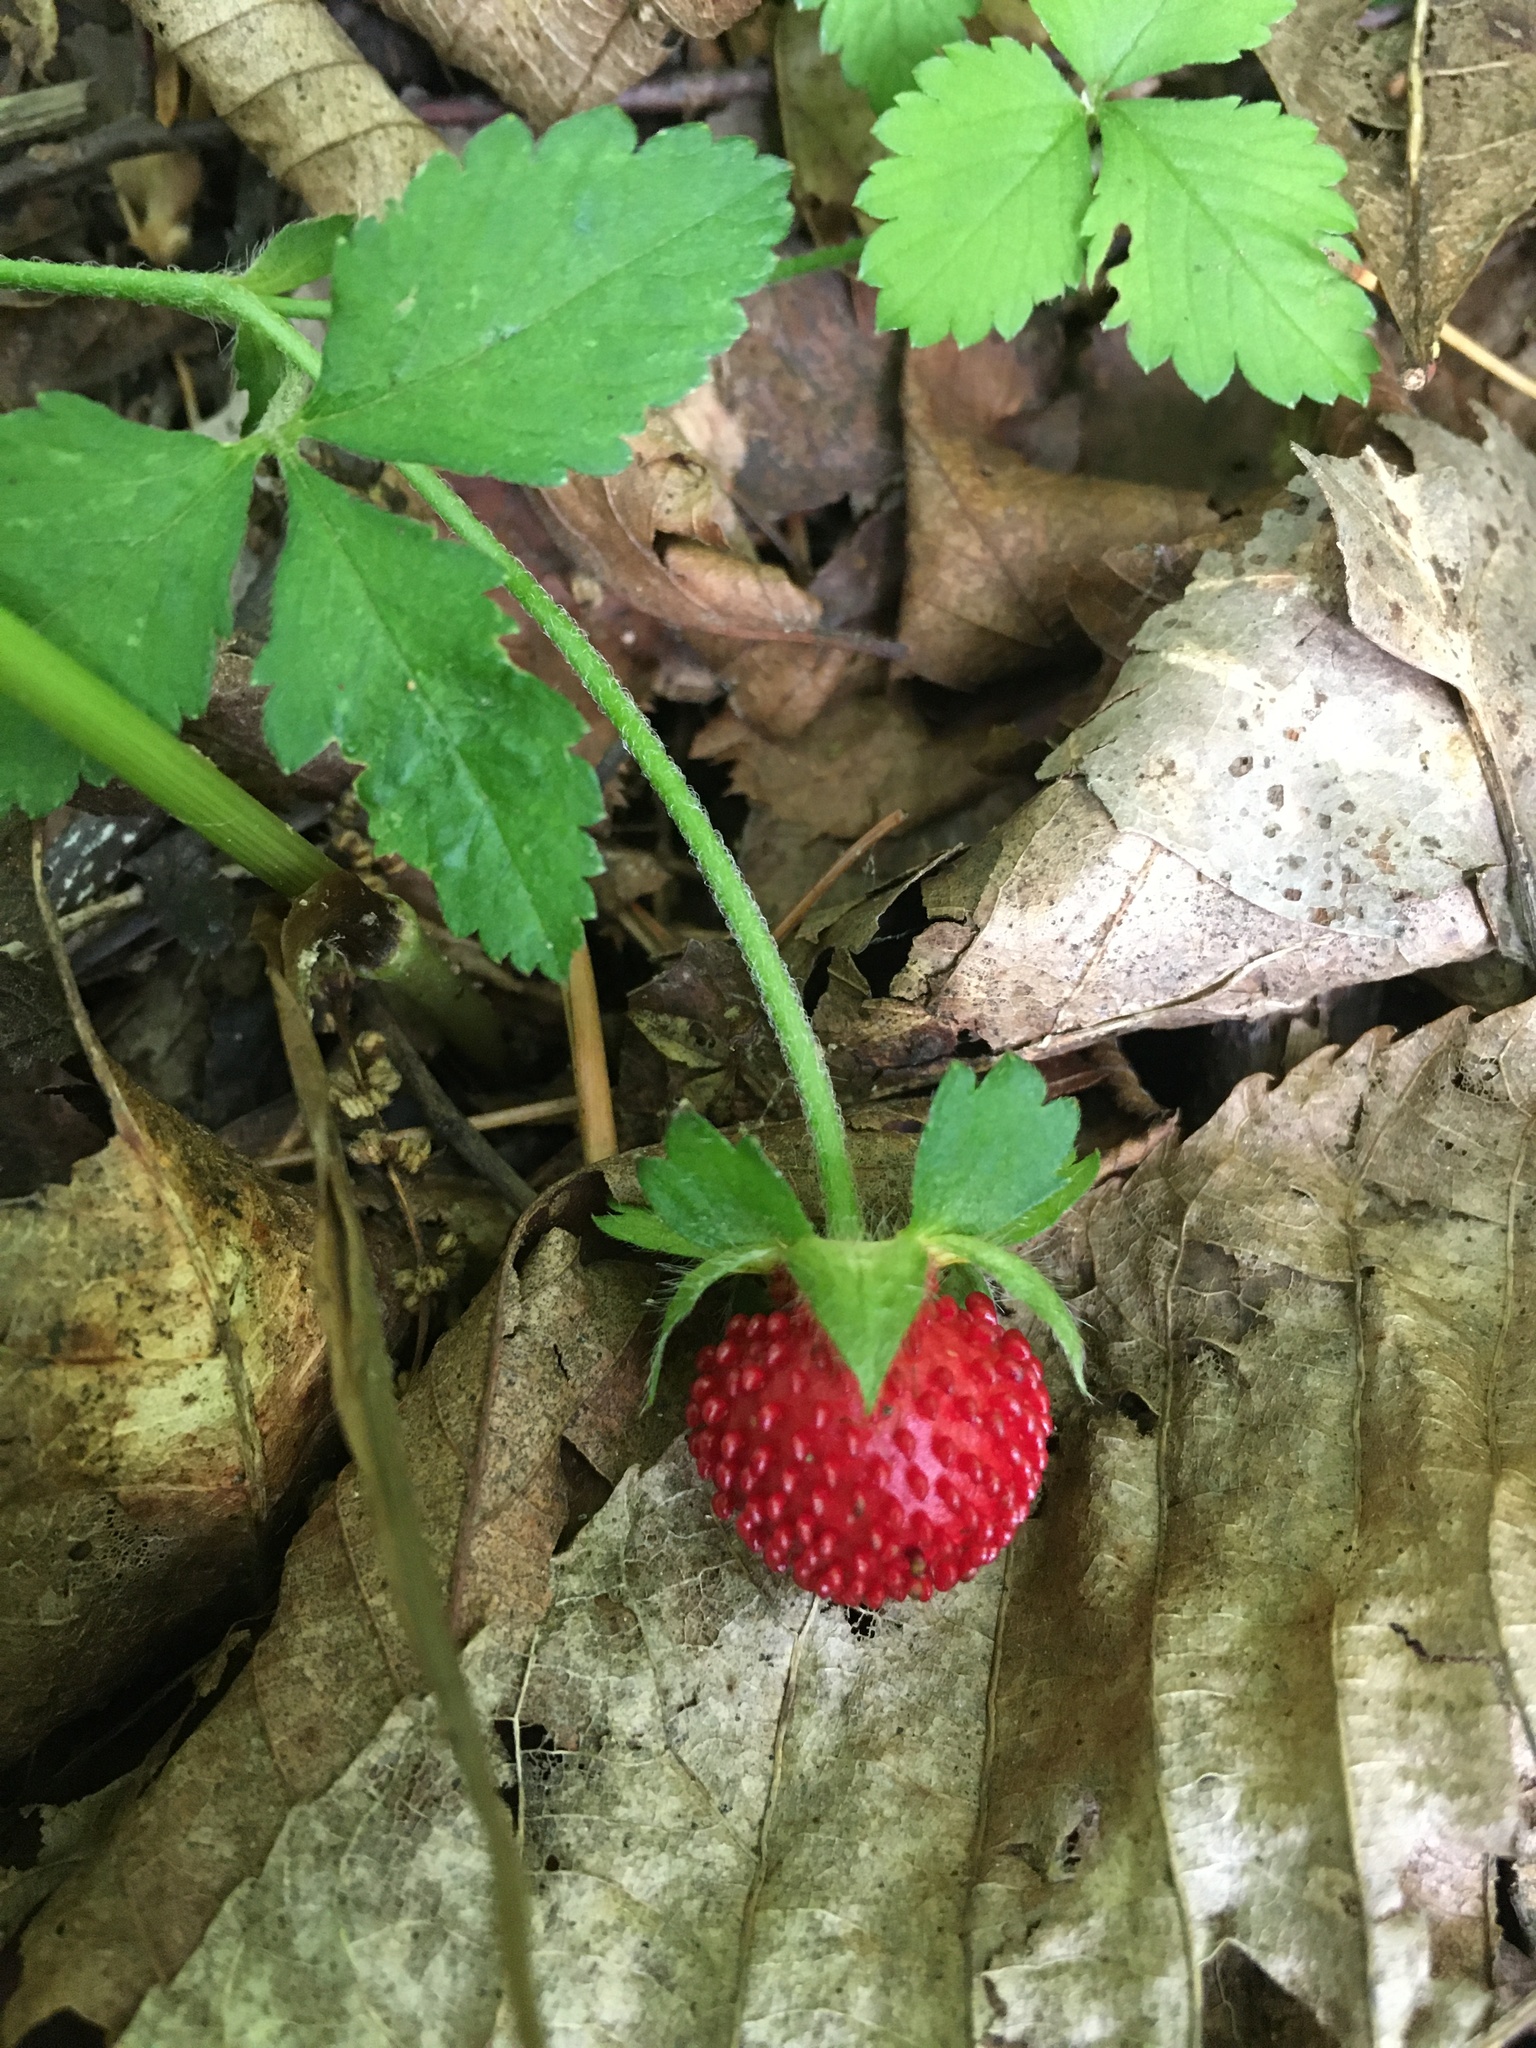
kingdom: Plantae
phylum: Tracheophyta
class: Magnoliopsida
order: Rosales
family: Rosaceae
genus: Potentilla
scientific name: Potentilla indica
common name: Yellow-flowered strawberry
